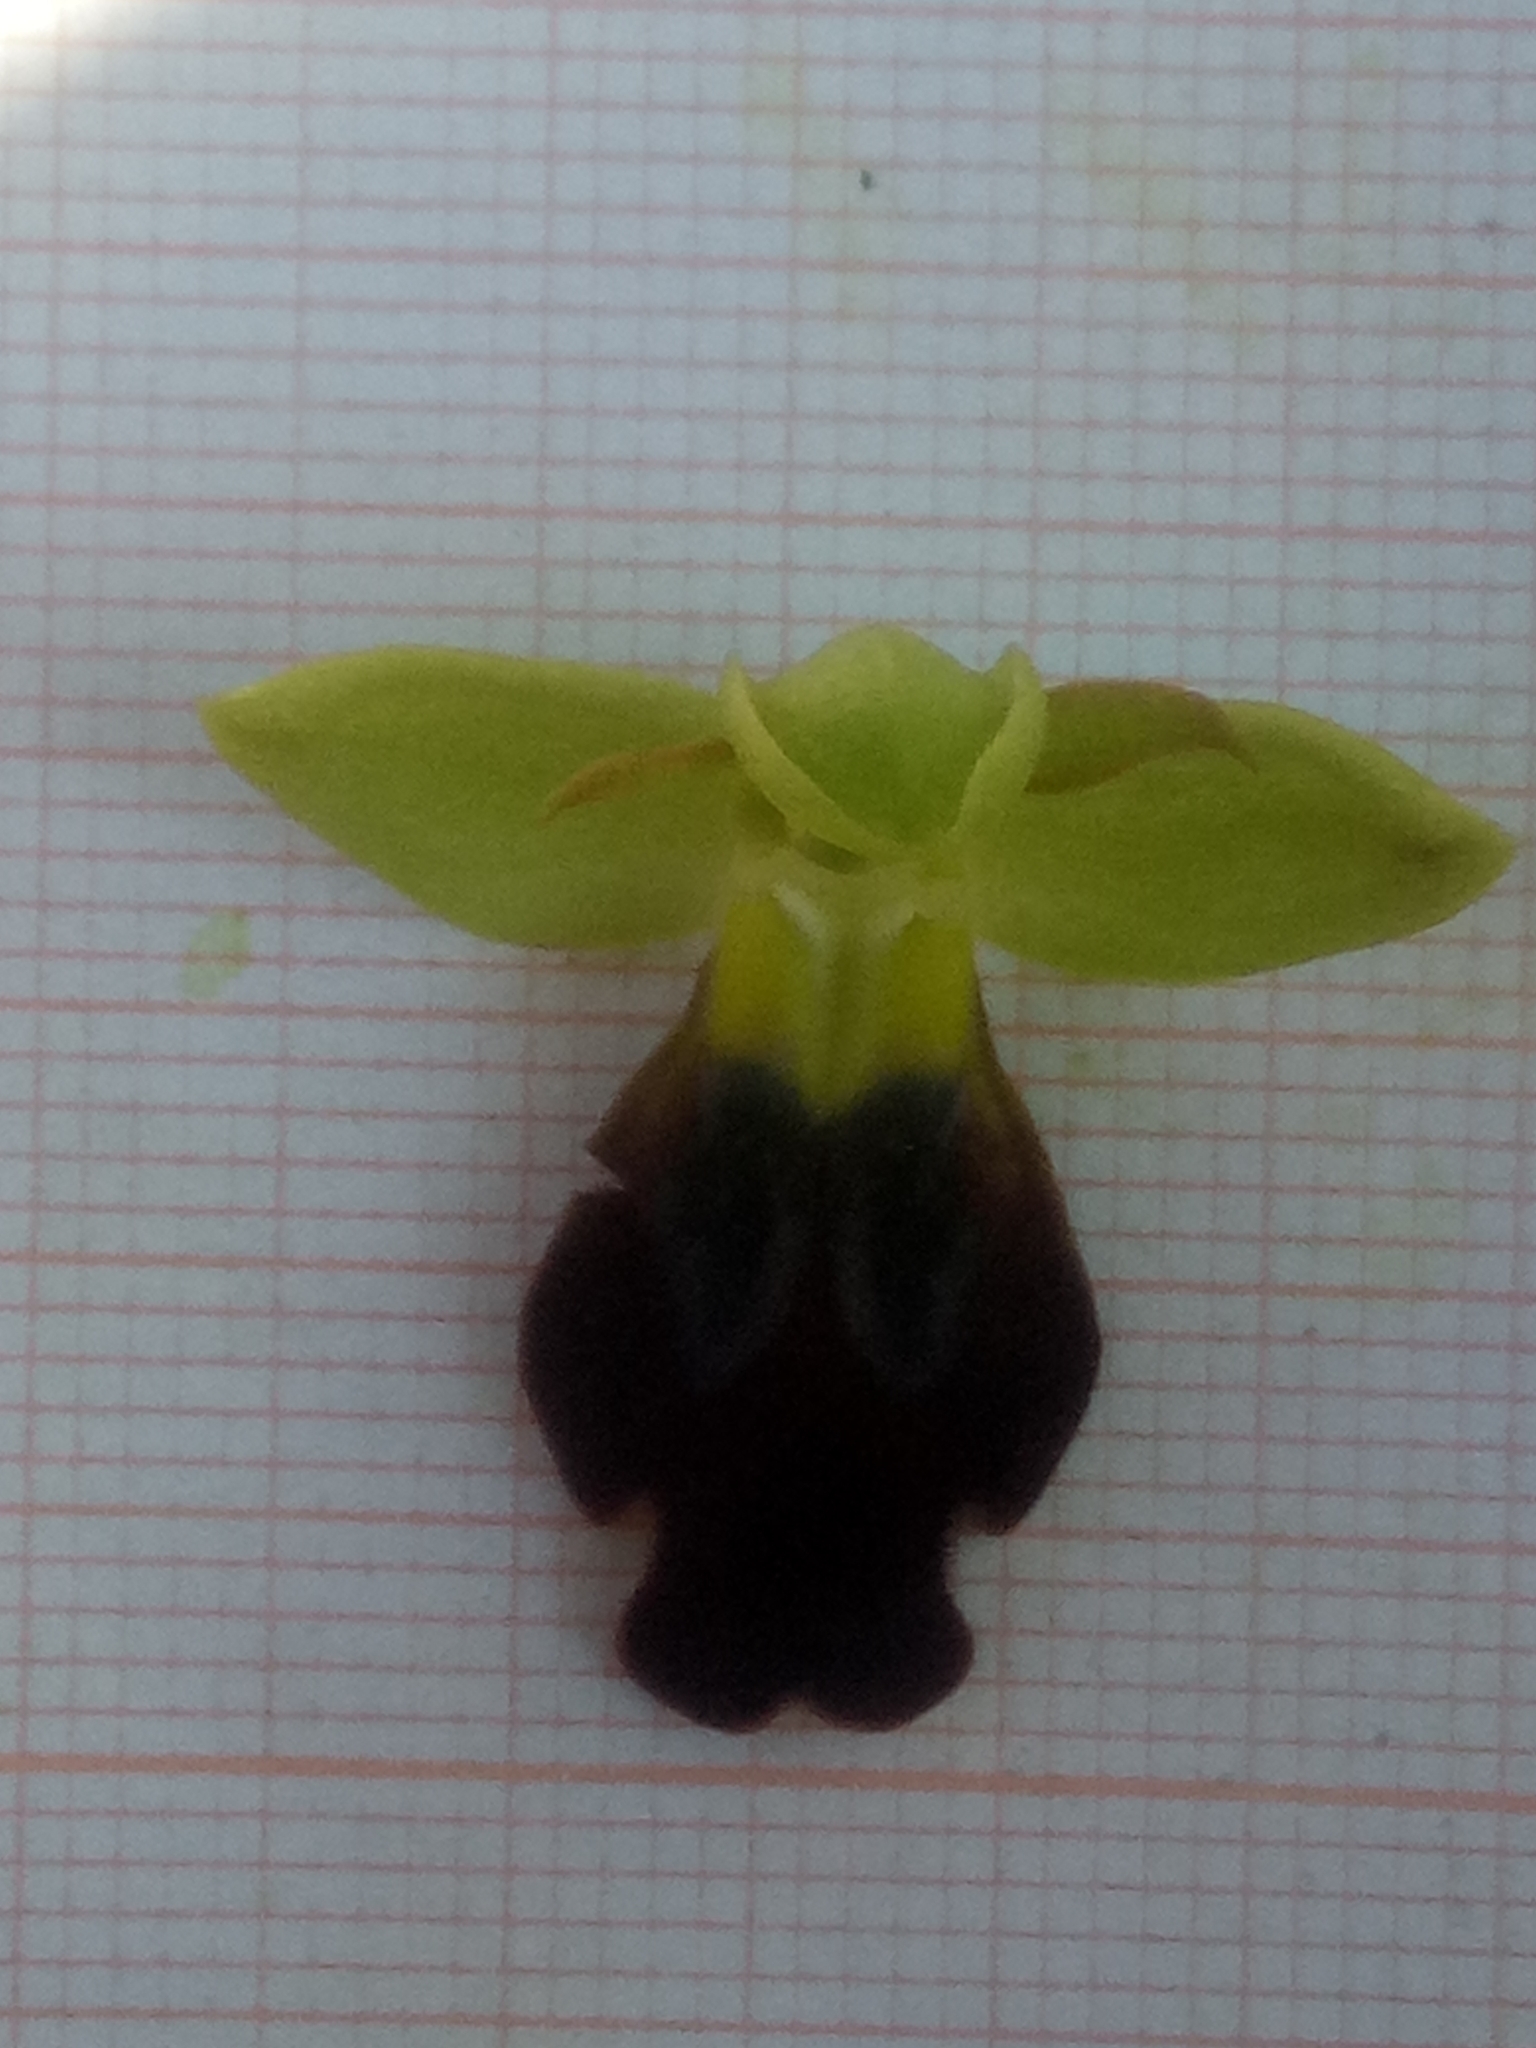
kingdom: Plantae
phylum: Tracheophyta
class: Liliopsida
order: Asparagales
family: Orchidaceae
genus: Ophrys
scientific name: Ophrys fusca
